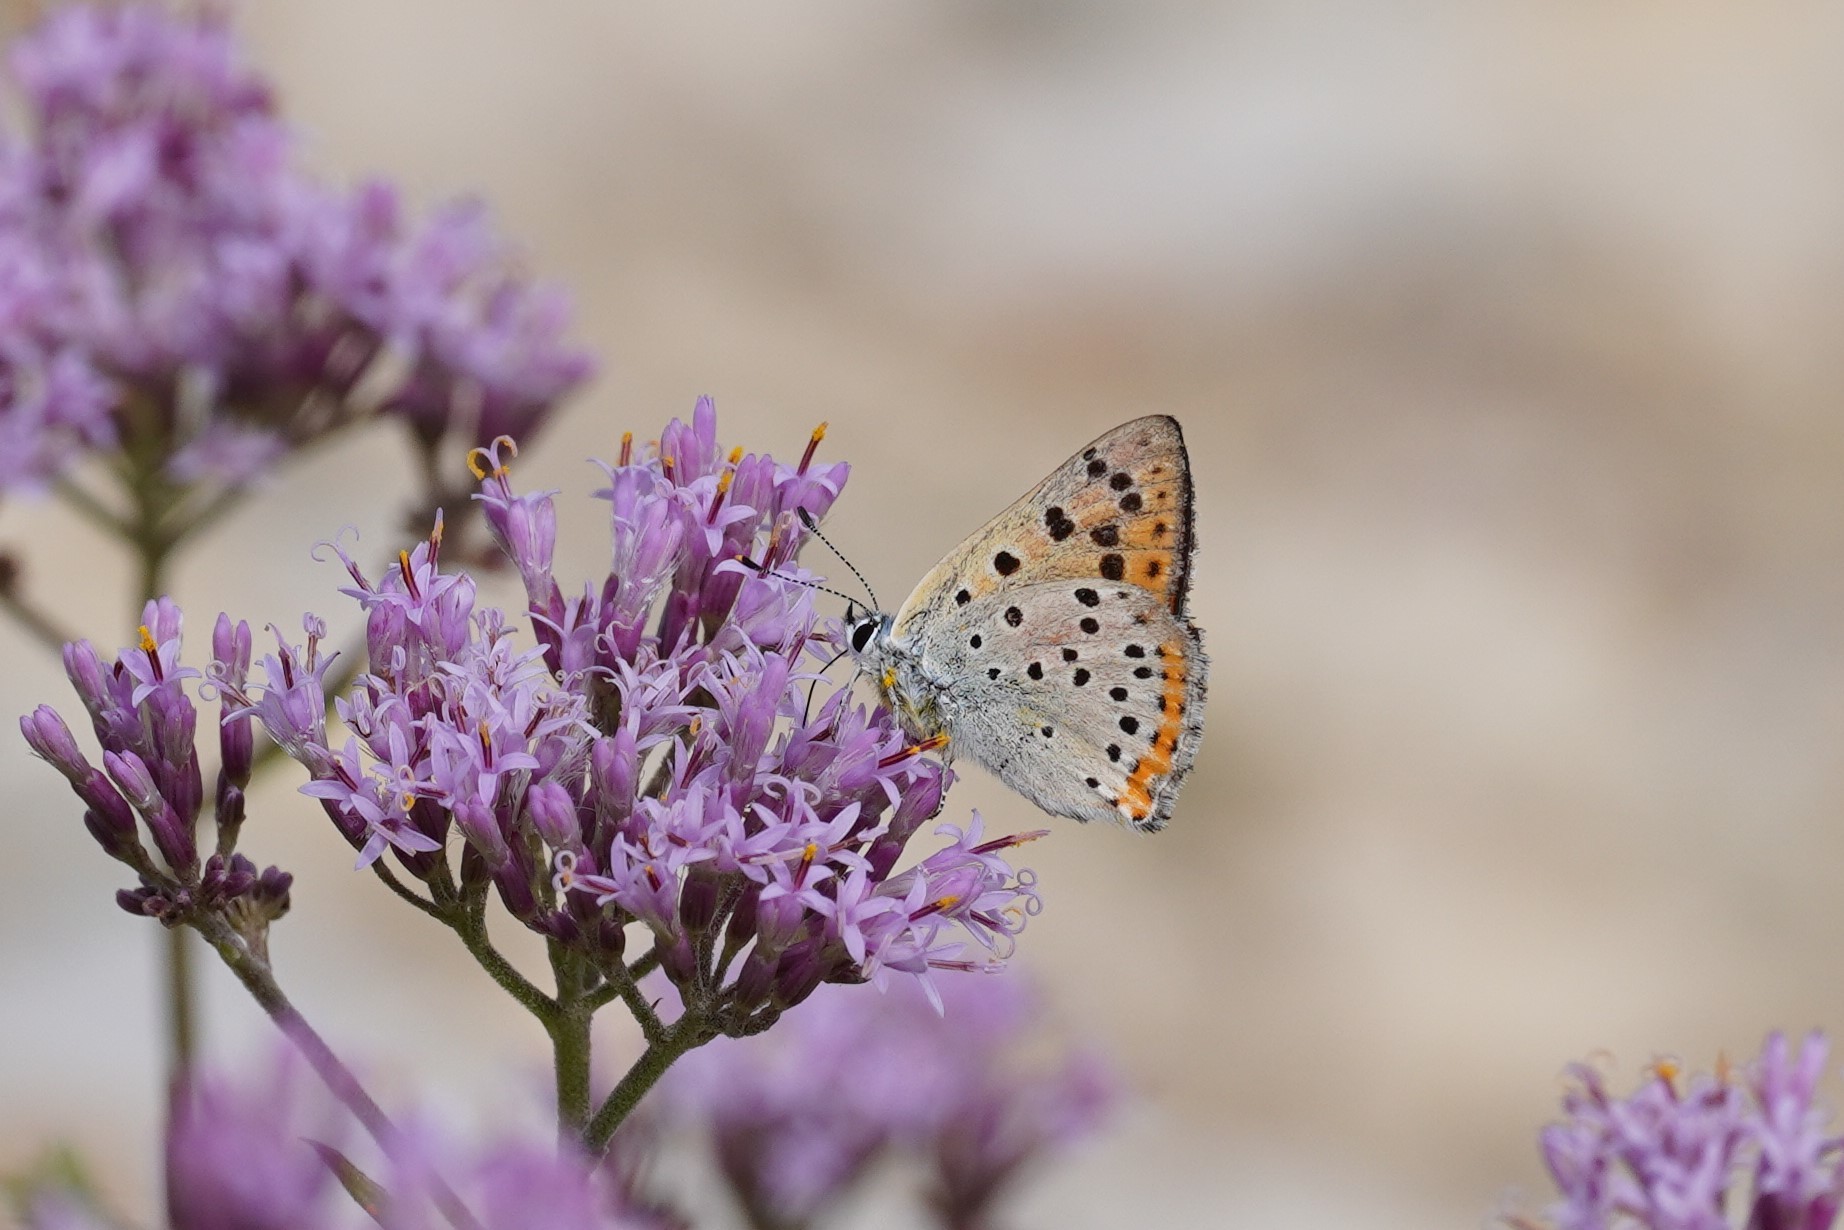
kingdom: Animalia
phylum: Arthropoda
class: Insecta
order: Lepidoptera
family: Lycaenidae
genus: Lycaena
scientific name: Lycaena alciphron
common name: Purple-shot copper
